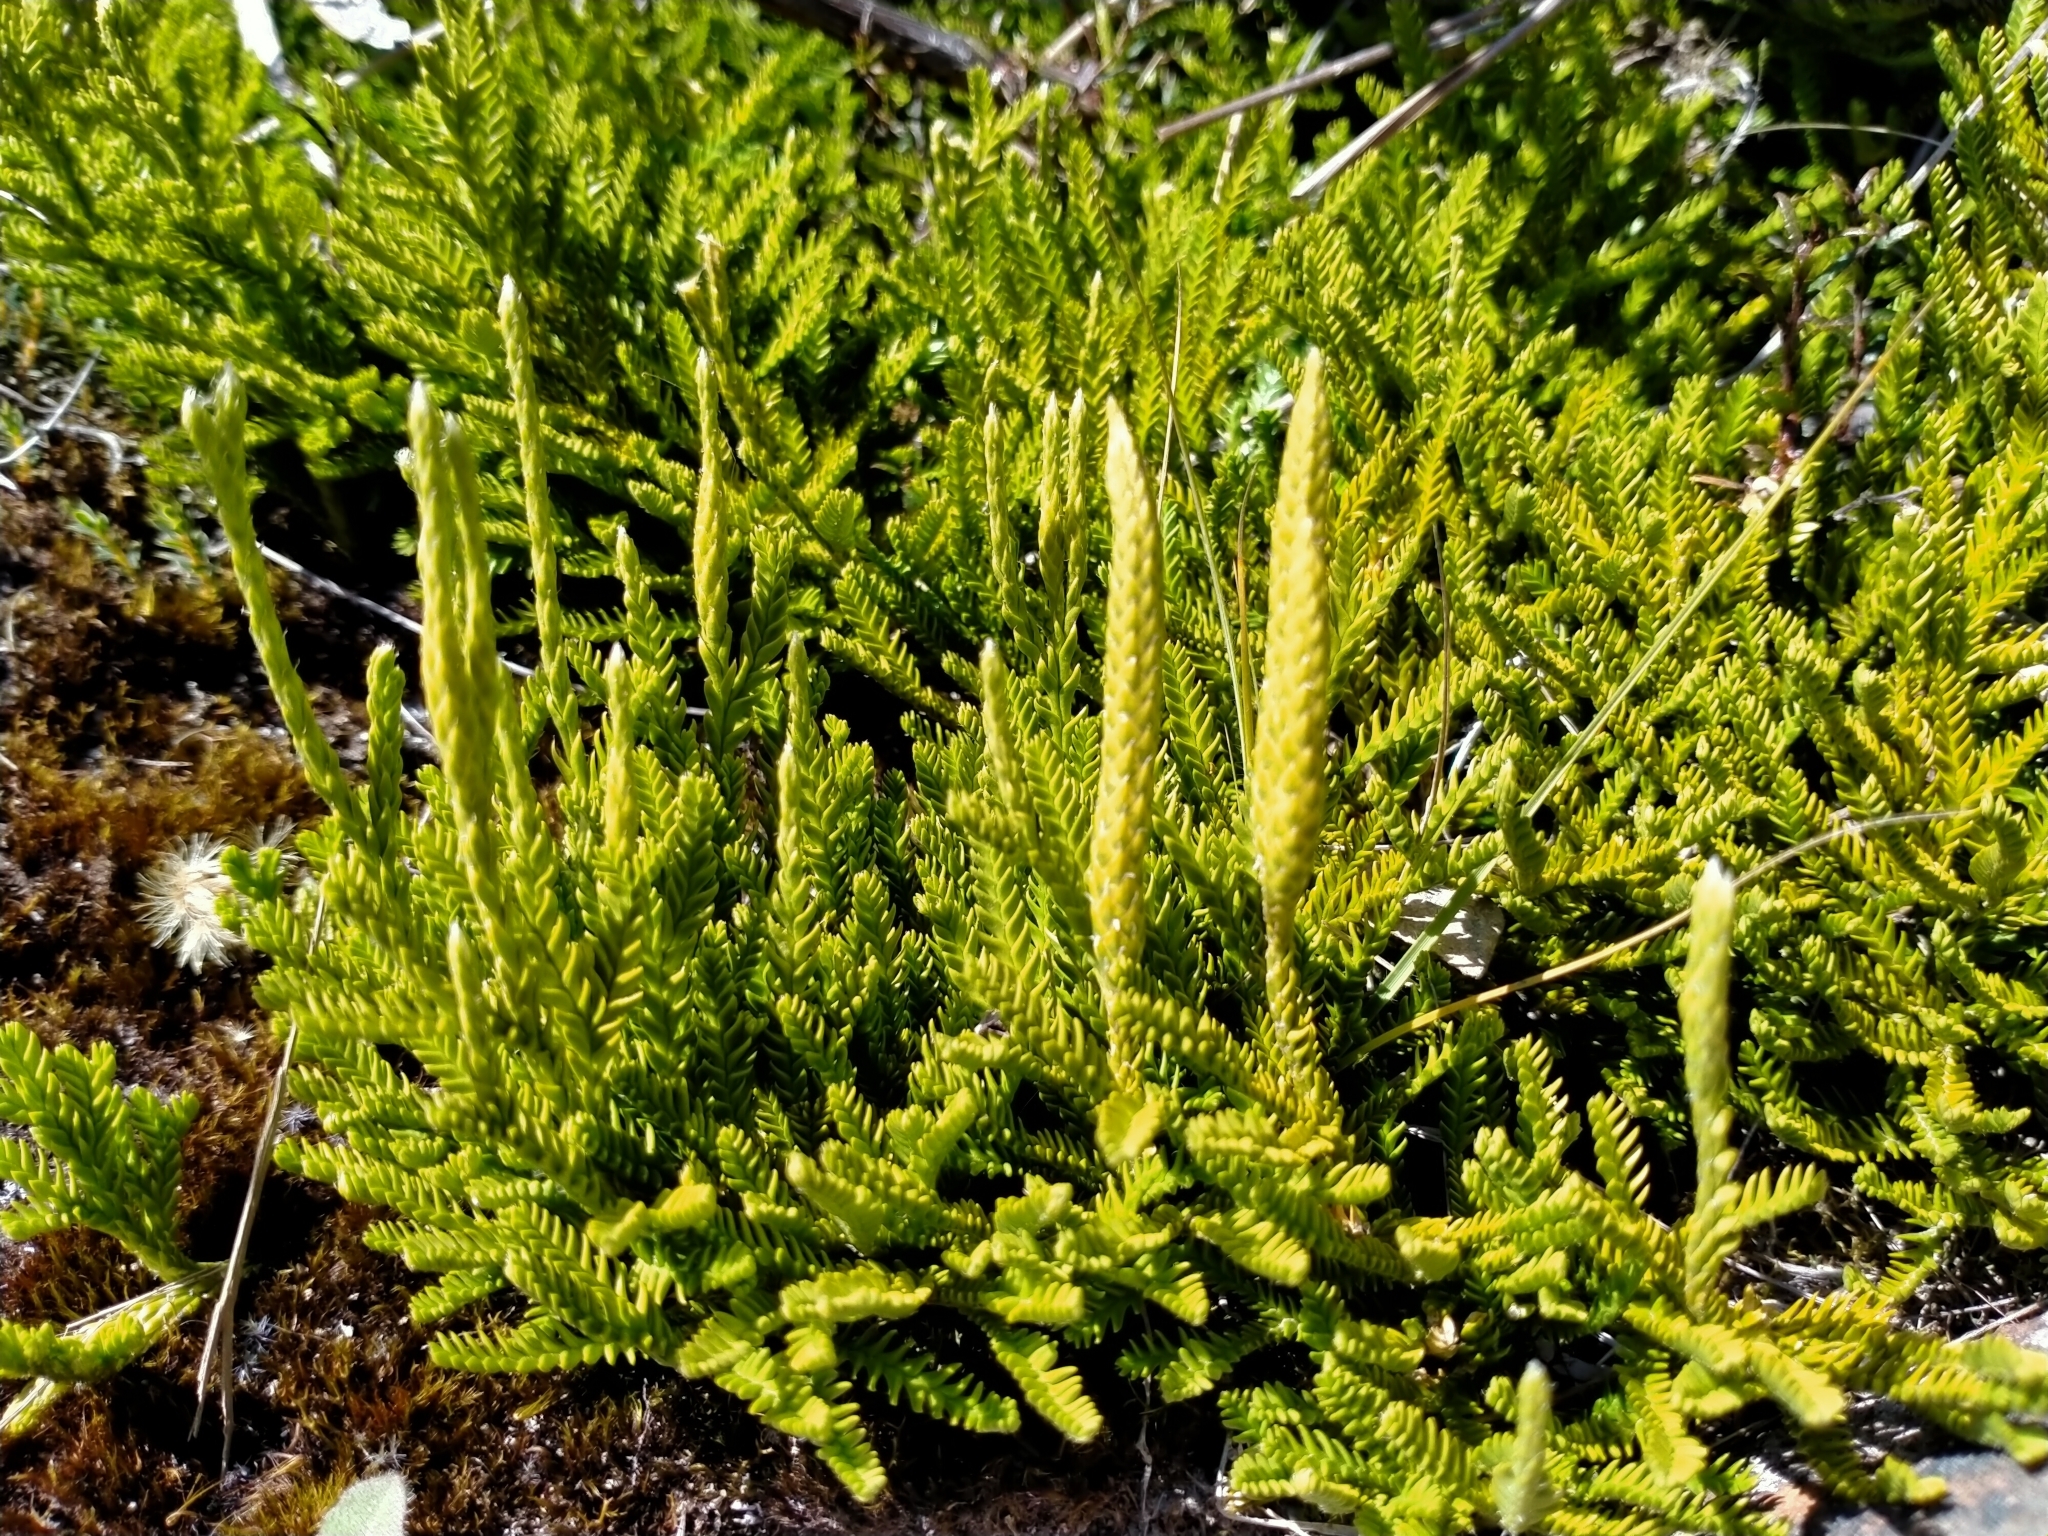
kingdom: Plantae
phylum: Tracheophyta
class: Lycopodiopsida
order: Lycopodiales
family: Lycopodiaceae
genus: Diphasium
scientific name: Diphasium scariosum
